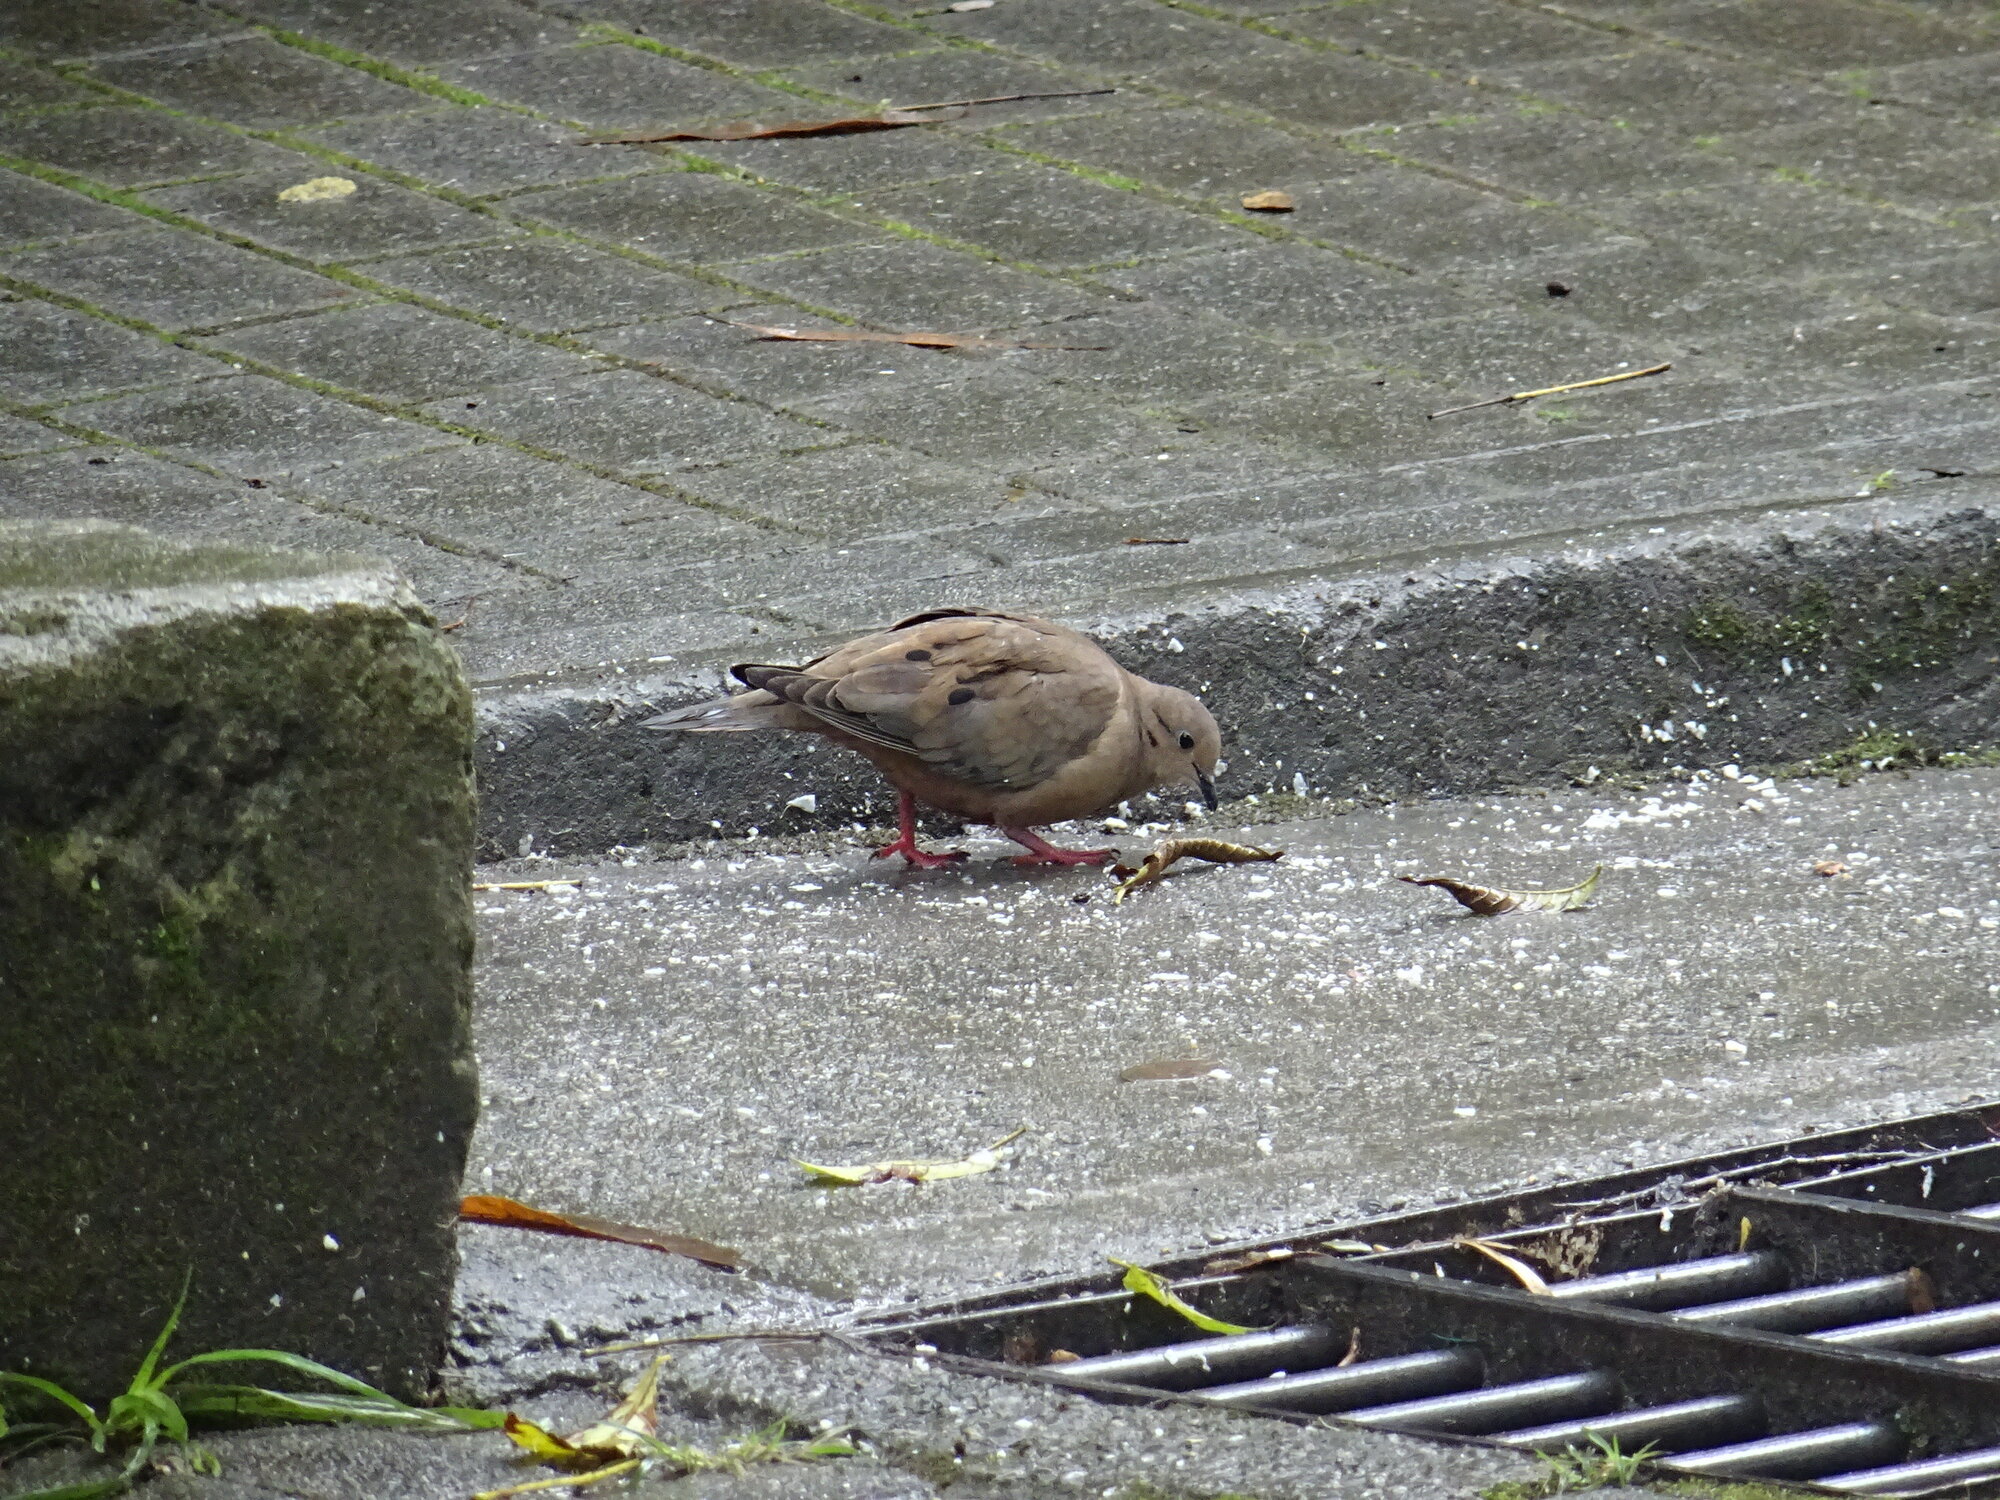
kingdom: Animalia
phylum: Chordata
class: Aves
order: Columbiformes
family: Columbidae
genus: Zenaida
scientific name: Zenaida auriculata
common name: Eared dove
